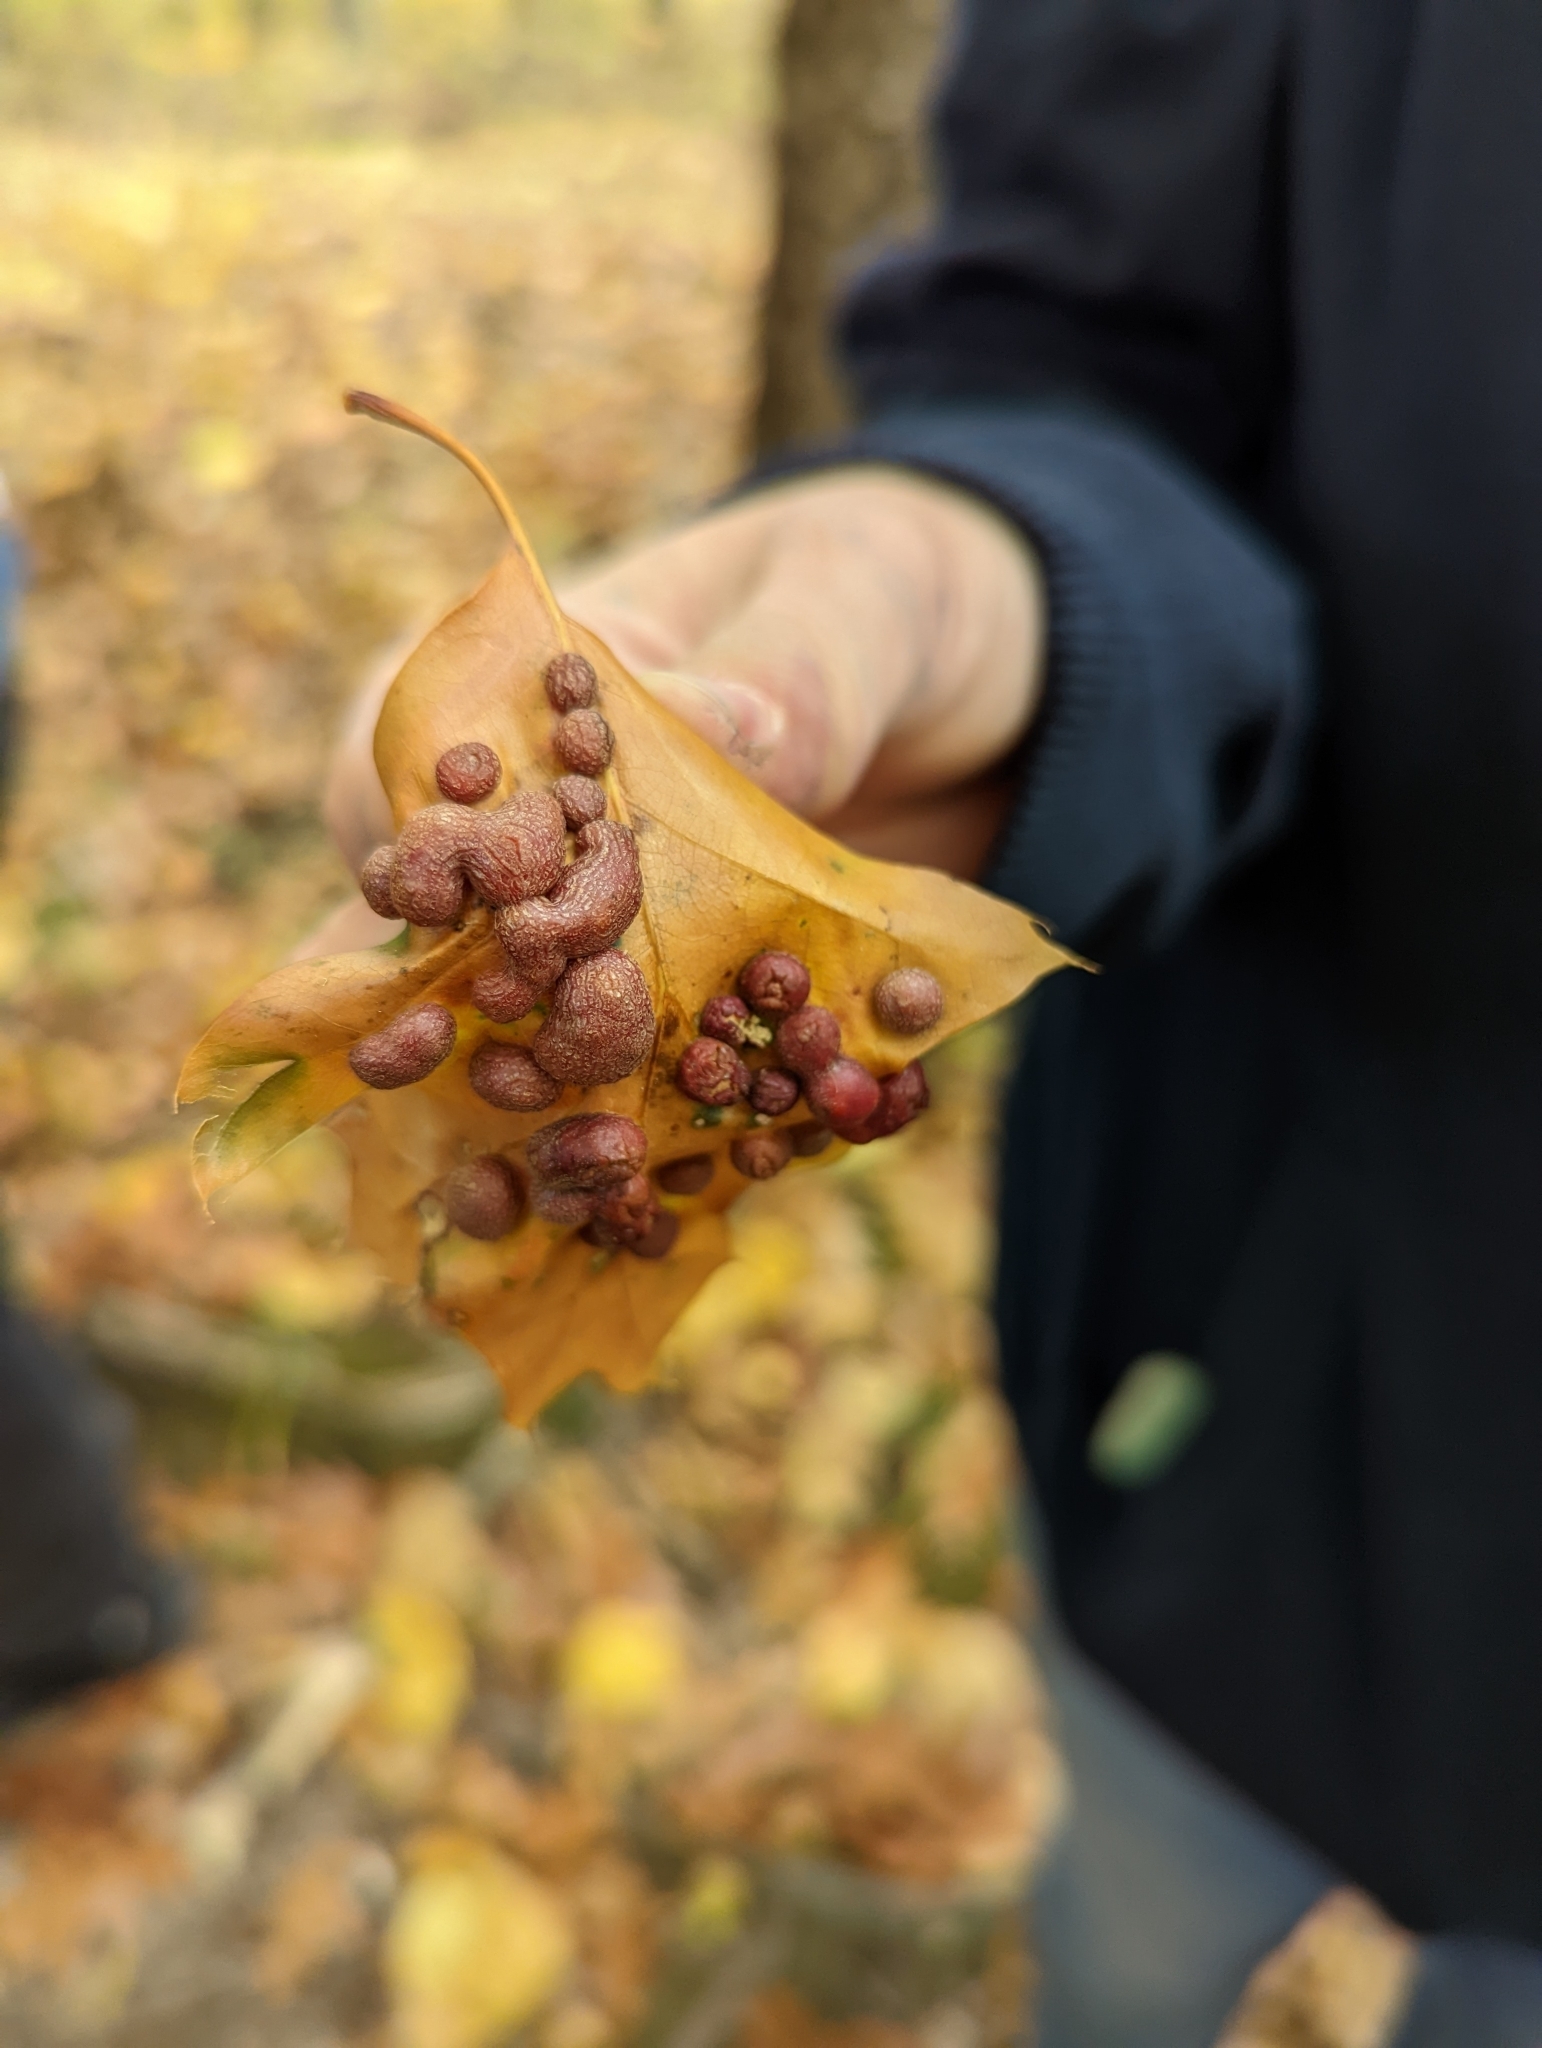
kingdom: Animalia
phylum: Arthropoda
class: Insecta
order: Diptera
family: Cecidomyiidae
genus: Polystepha
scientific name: Polystepha pilulae
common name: Oak leaf gall midge
